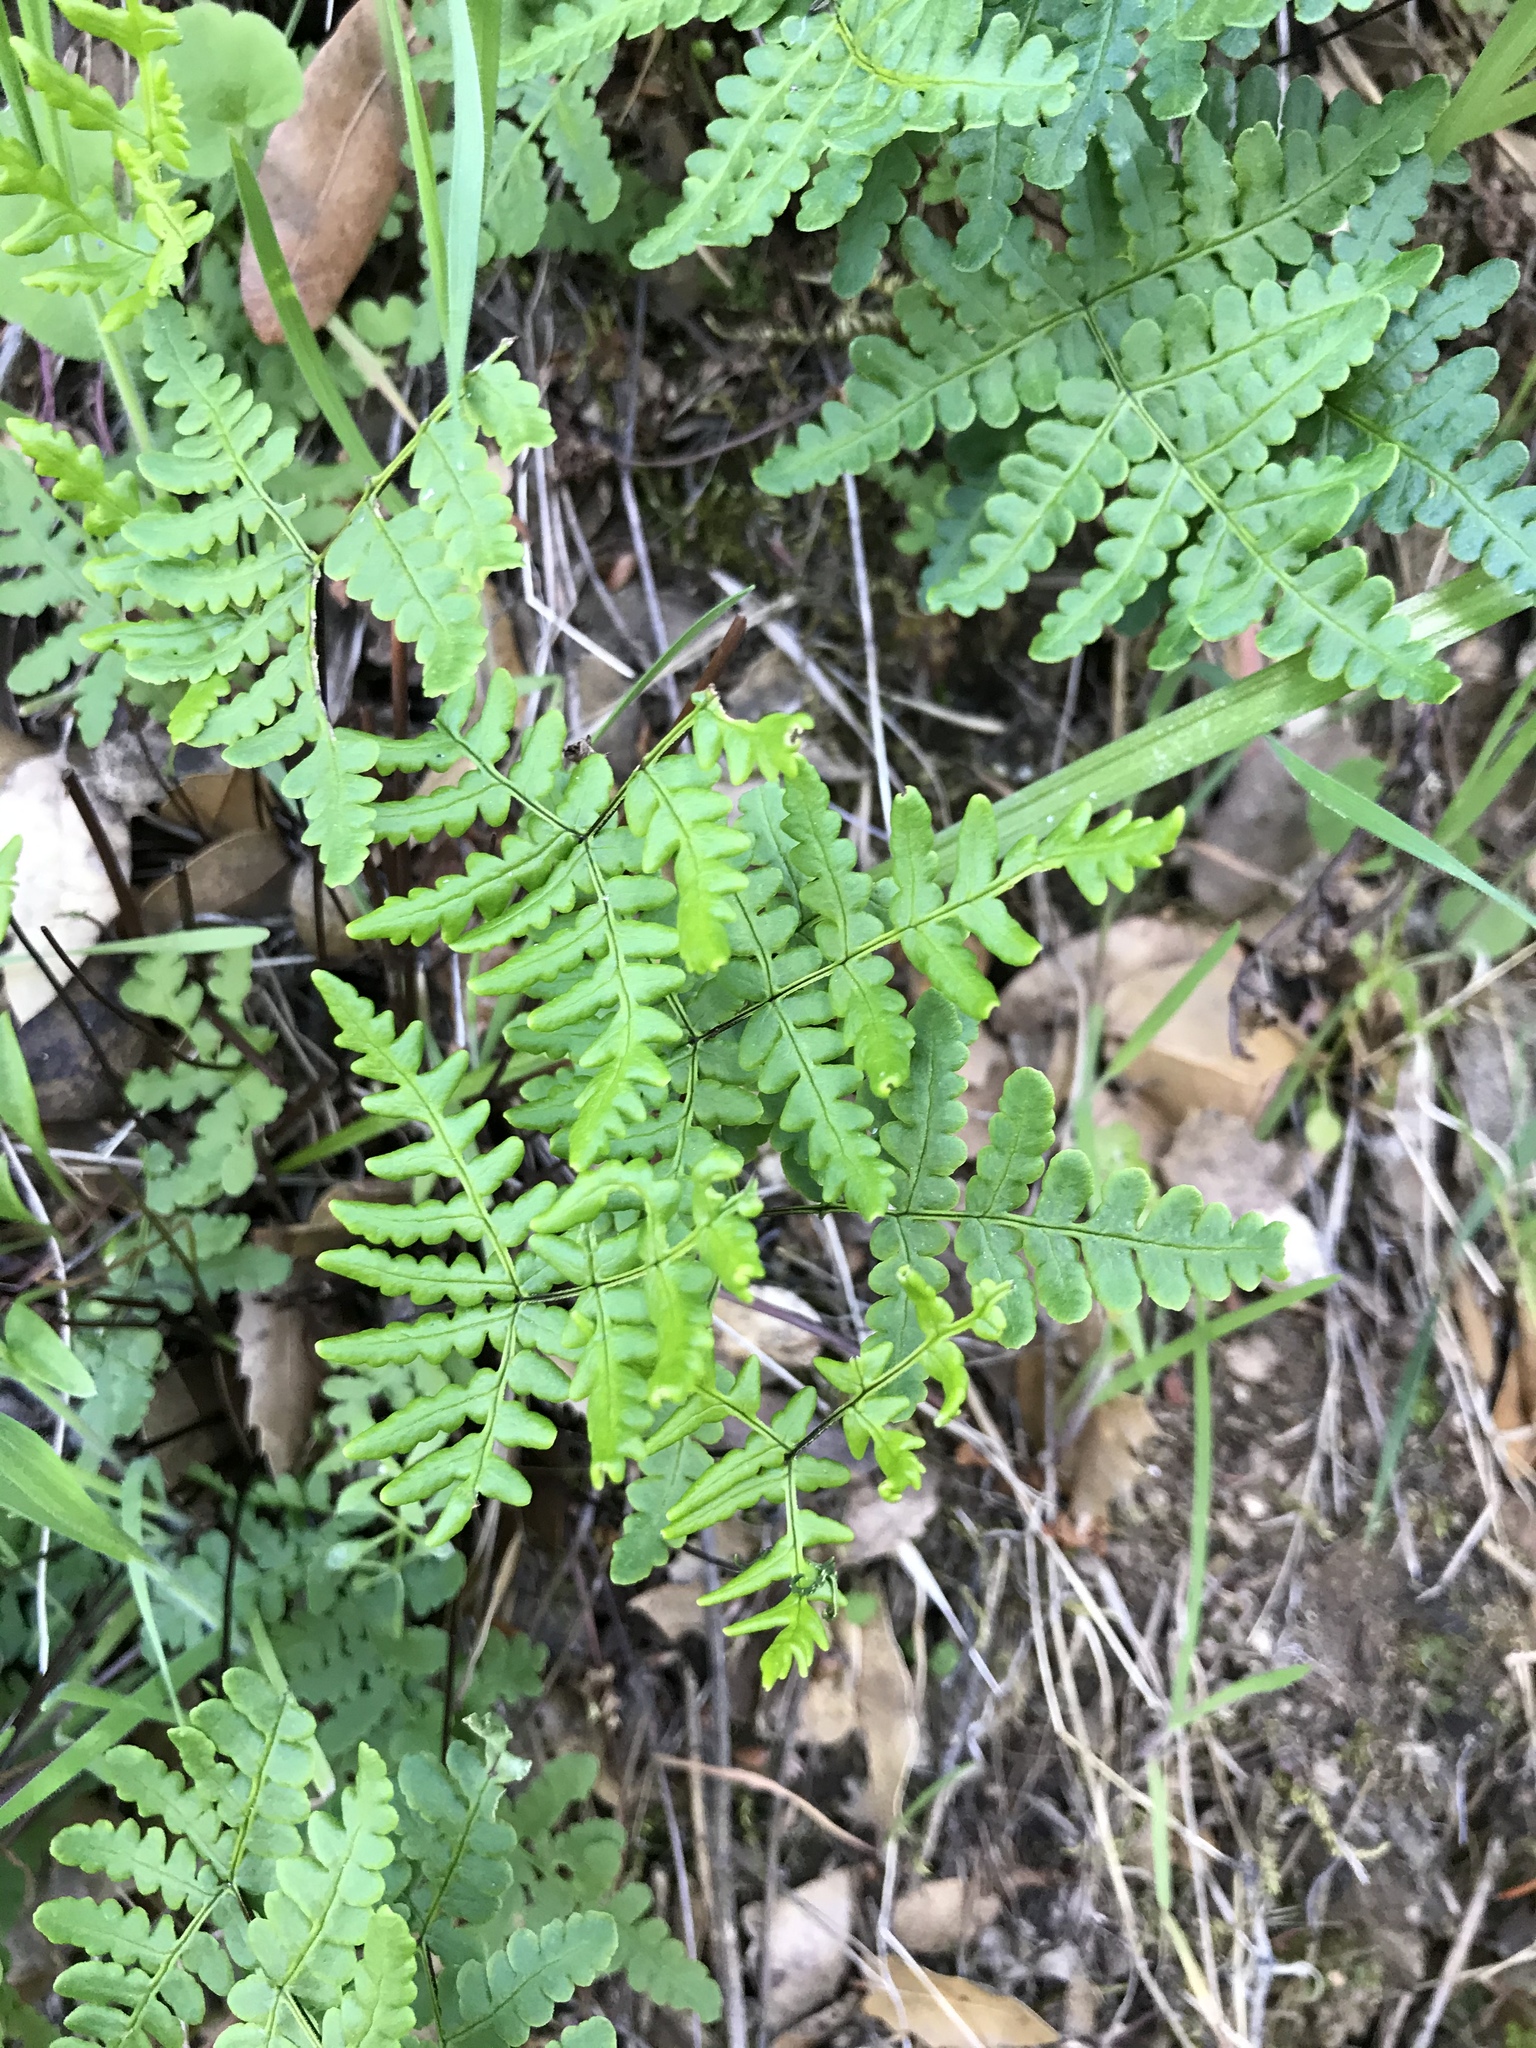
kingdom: Plantae
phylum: Tracheophyta
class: Polypodiopsida
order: Polypodiales
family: Pteridaceae
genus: Pentagramma
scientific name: Pentagramma triangularis
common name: Gold fern
